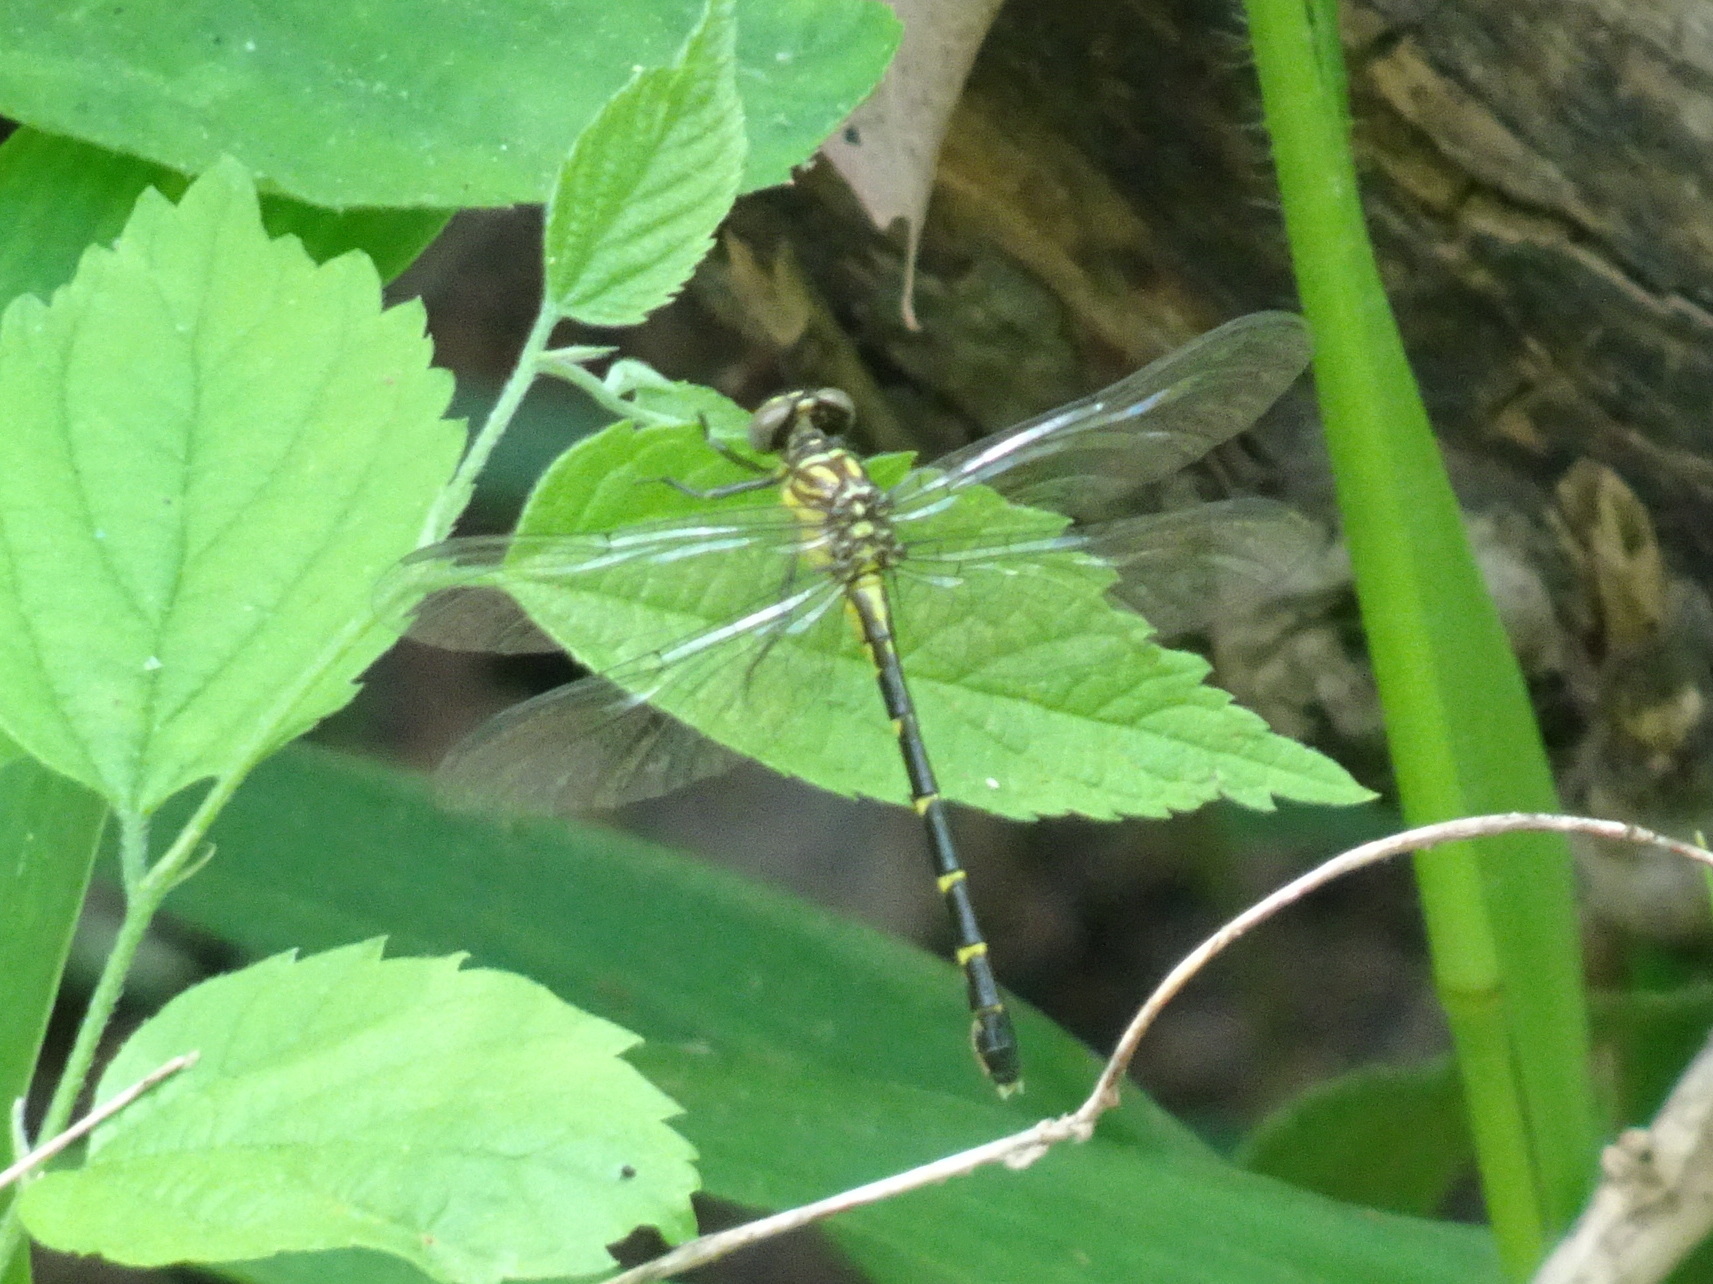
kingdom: Animalia
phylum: Arthropoda
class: Insecta
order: Odonata
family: Gomphidae
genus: Stylogomphus
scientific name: Stylogomphus sigmastylus
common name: Interior least clubtail
